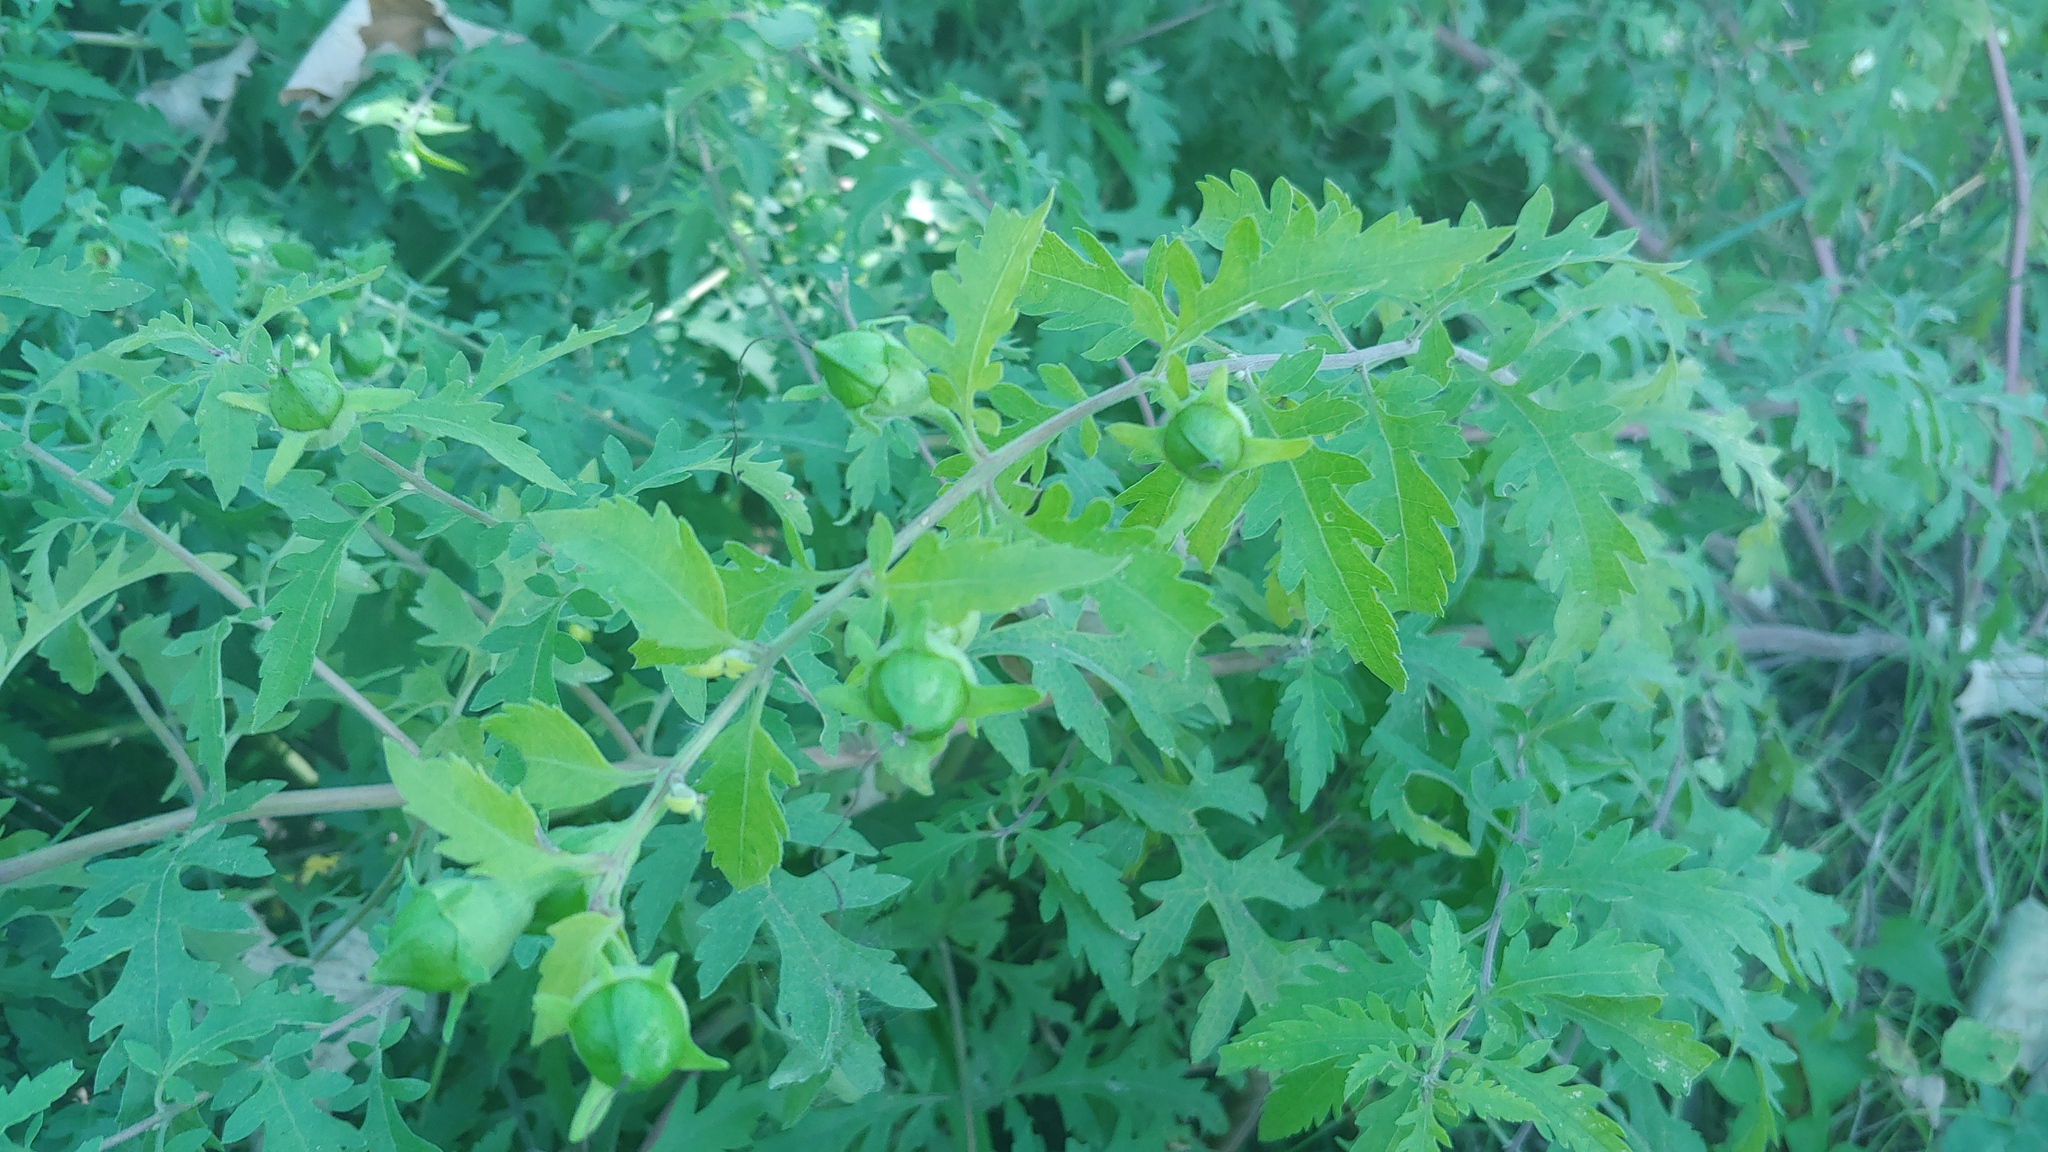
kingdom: Plantae
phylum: Tracheophyta
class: Magnoliopsida
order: Lamiales
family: Orobanchaceae
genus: Aureolaria
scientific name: Aureolaria grandiflora
